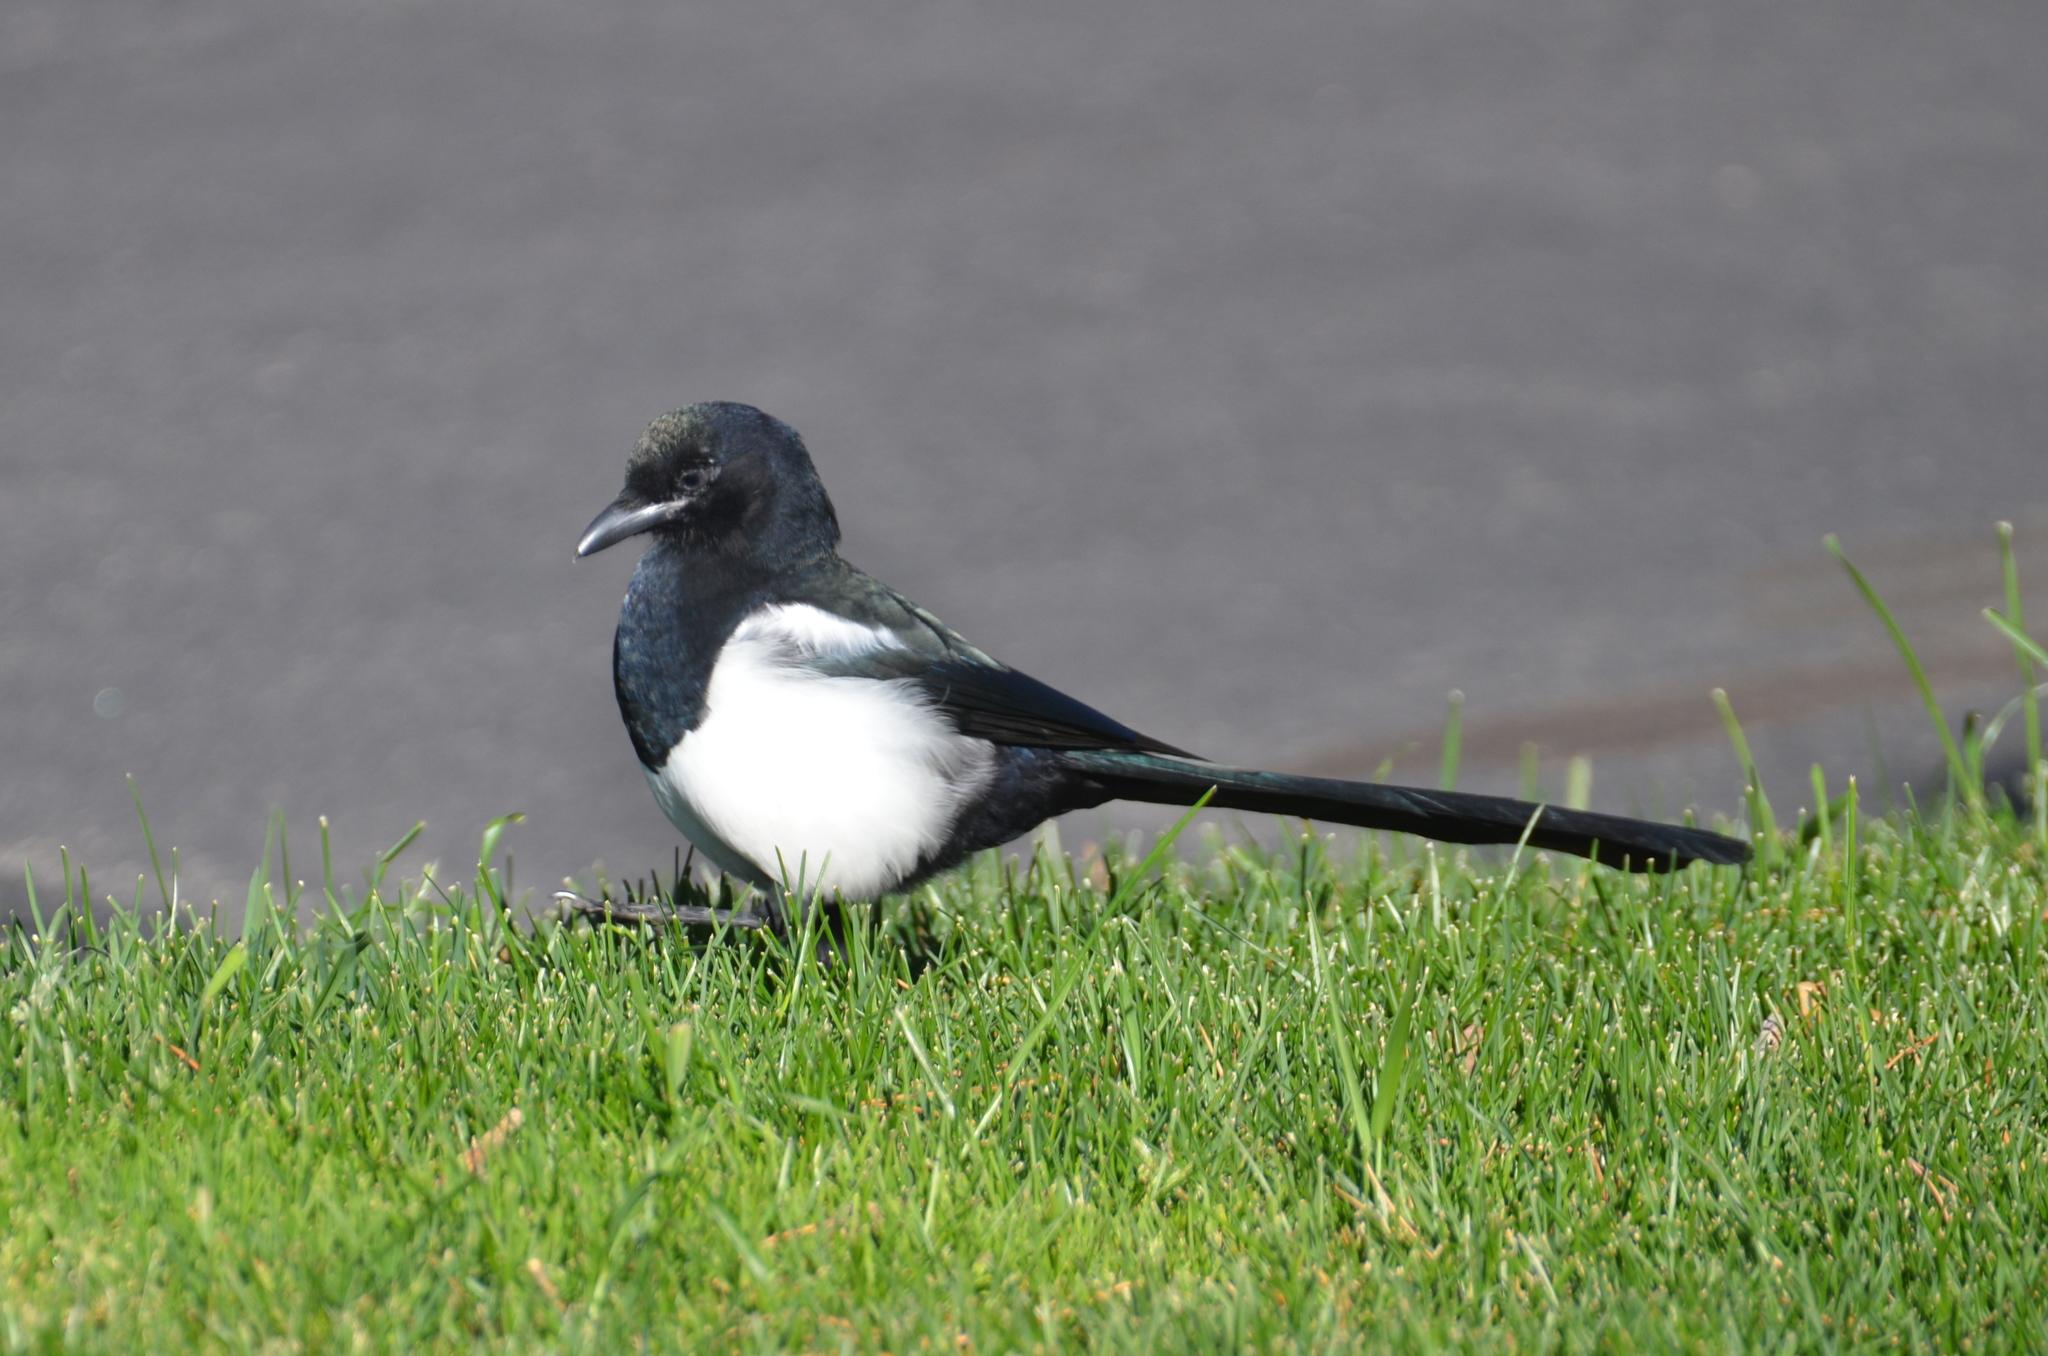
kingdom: Animalia
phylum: Chordata
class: Aves
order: Passeriformes
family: Corvidae
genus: Pica
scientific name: Pica hudsonia
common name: Black-billed magpie
